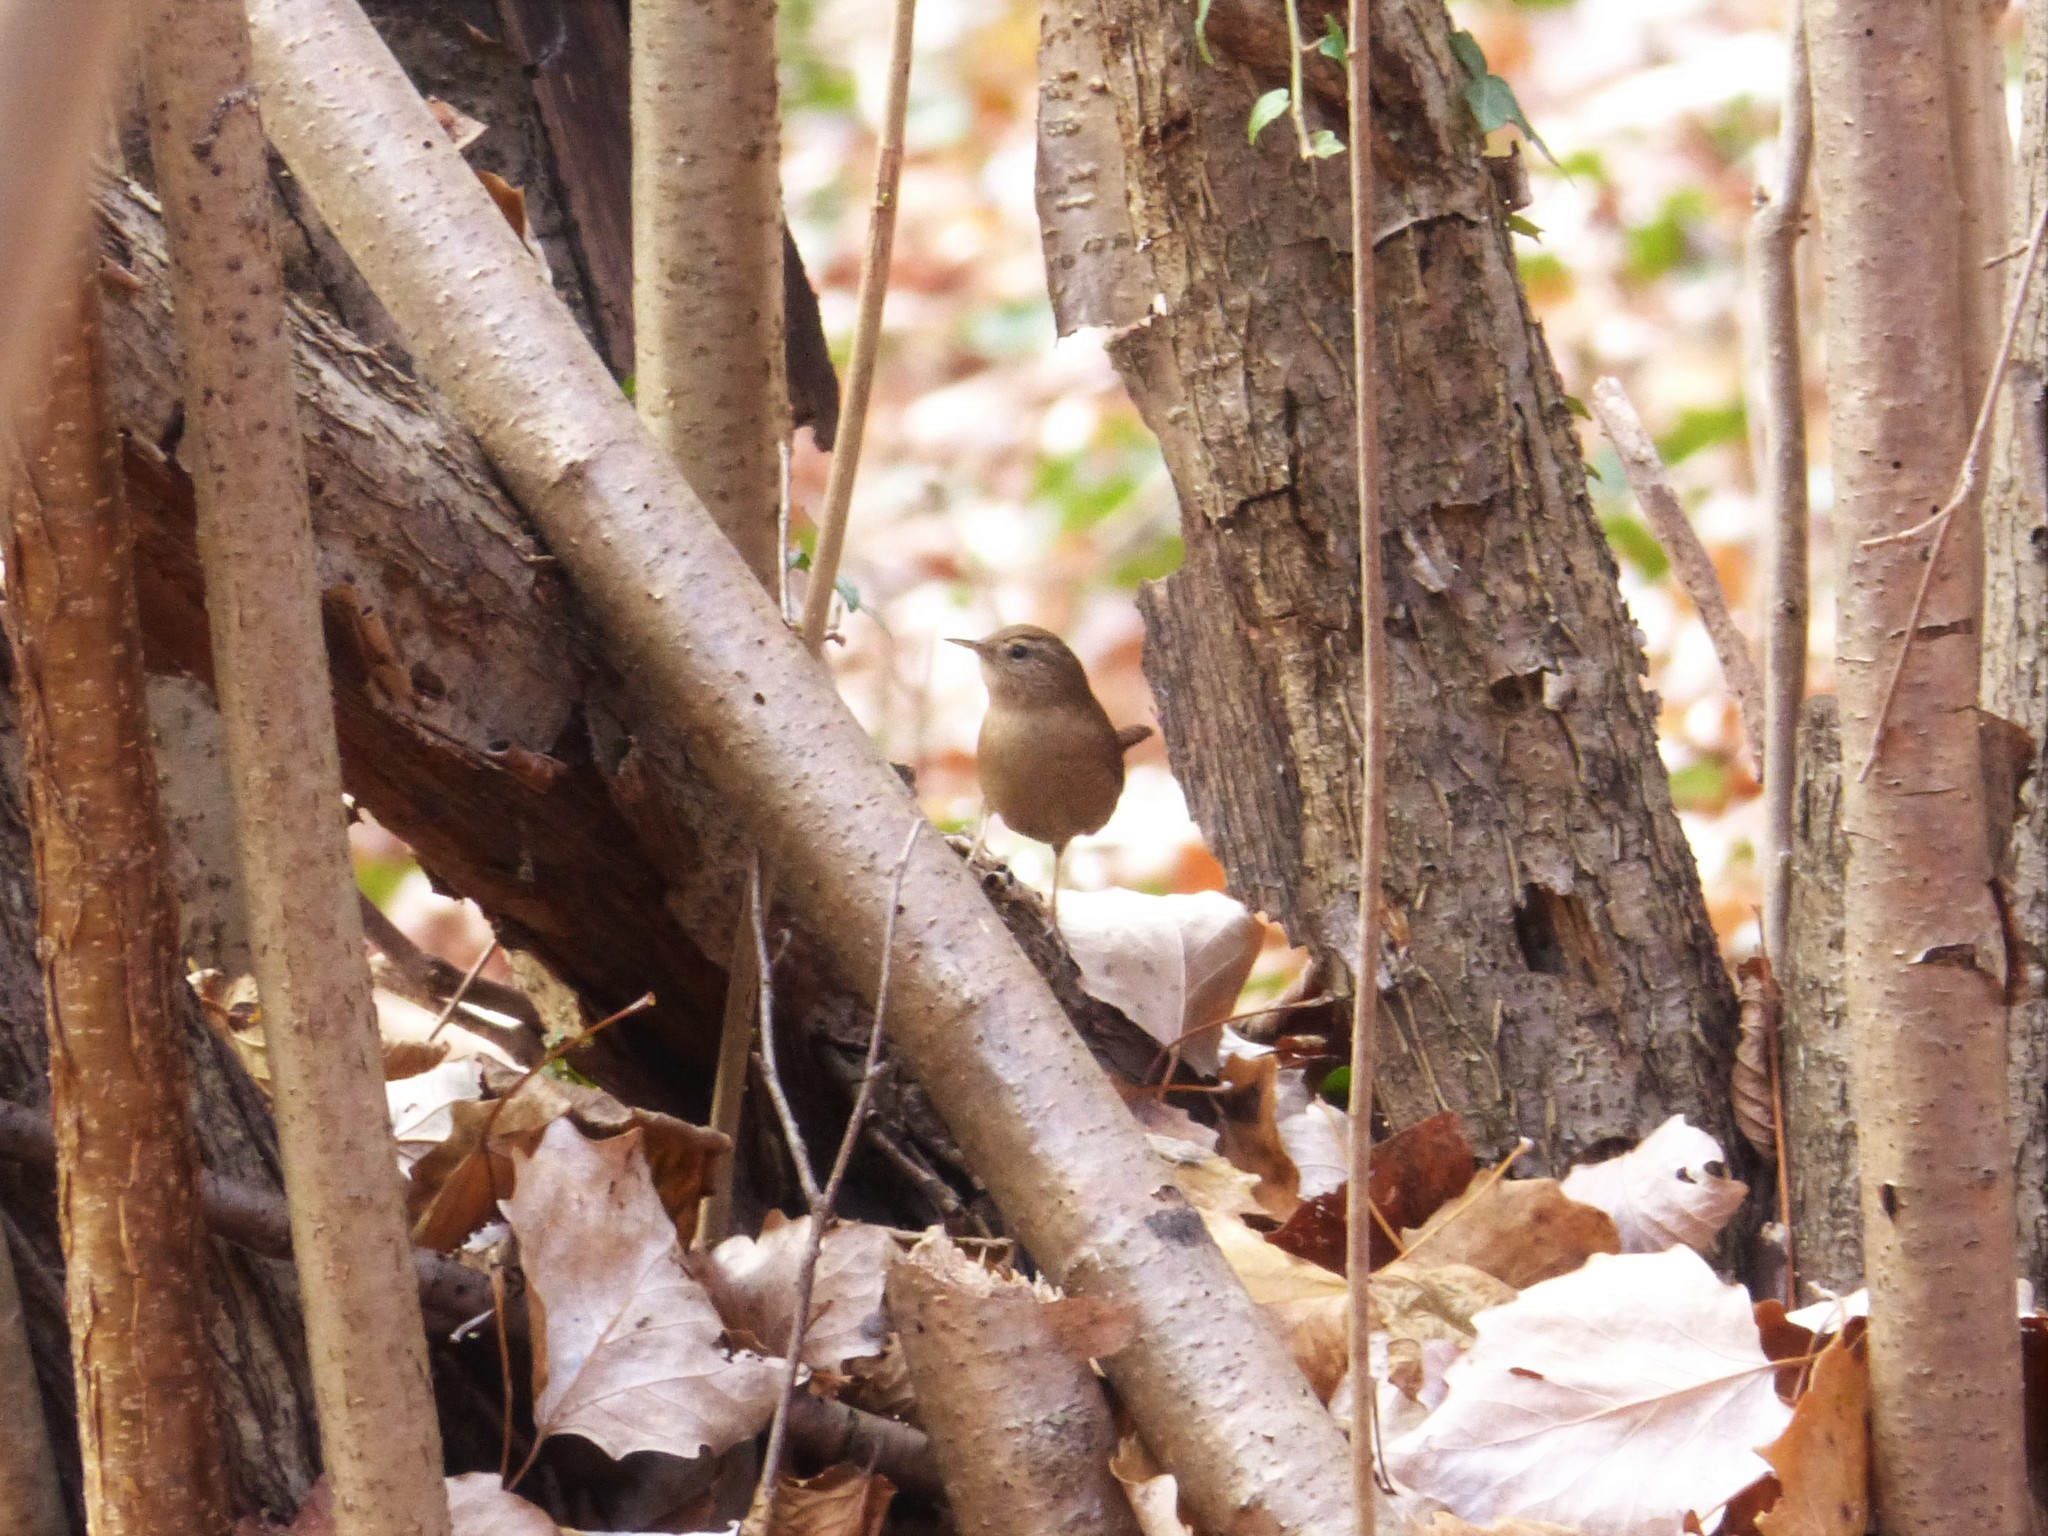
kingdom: Animalia
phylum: Chordata
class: Aves
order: Passeriformes
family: Troglodytidae
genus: Troglodytes
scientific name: Troglodytes troglodytes
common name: Eurasian wren
